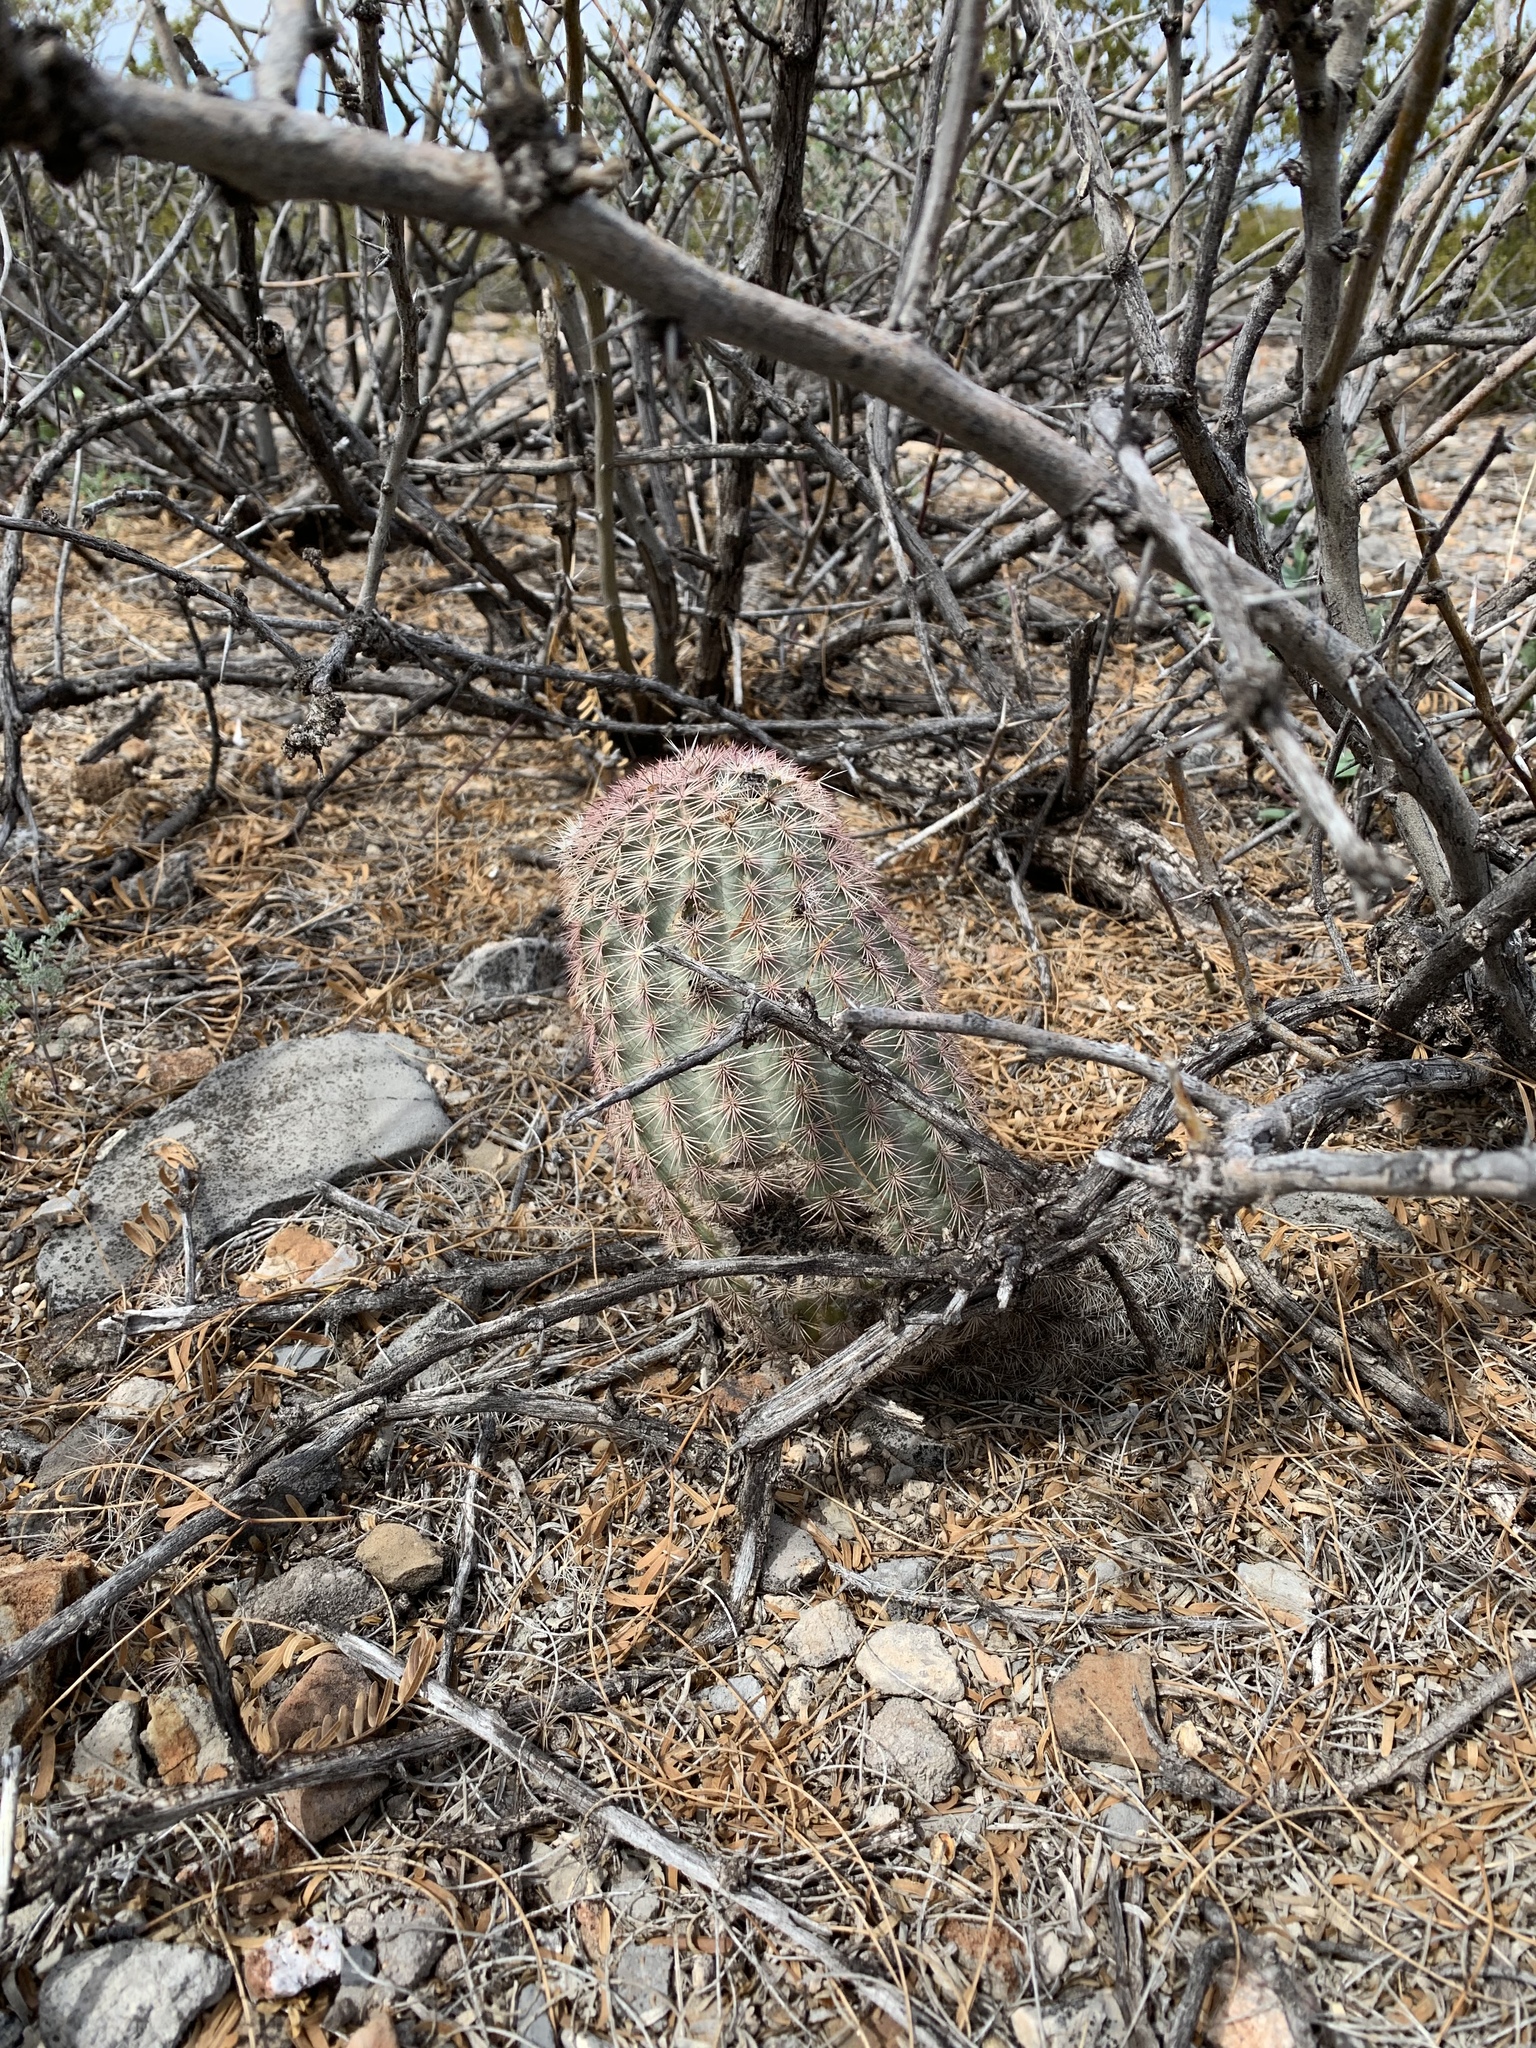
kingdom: Plantae
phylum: Tracheophyta
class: Magnoliopsida
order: Caryophyllales
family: Cactaceae
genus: Echinocereus
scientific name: Echinocereus dasyacanthus
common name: Spiny hedgehog cactus
